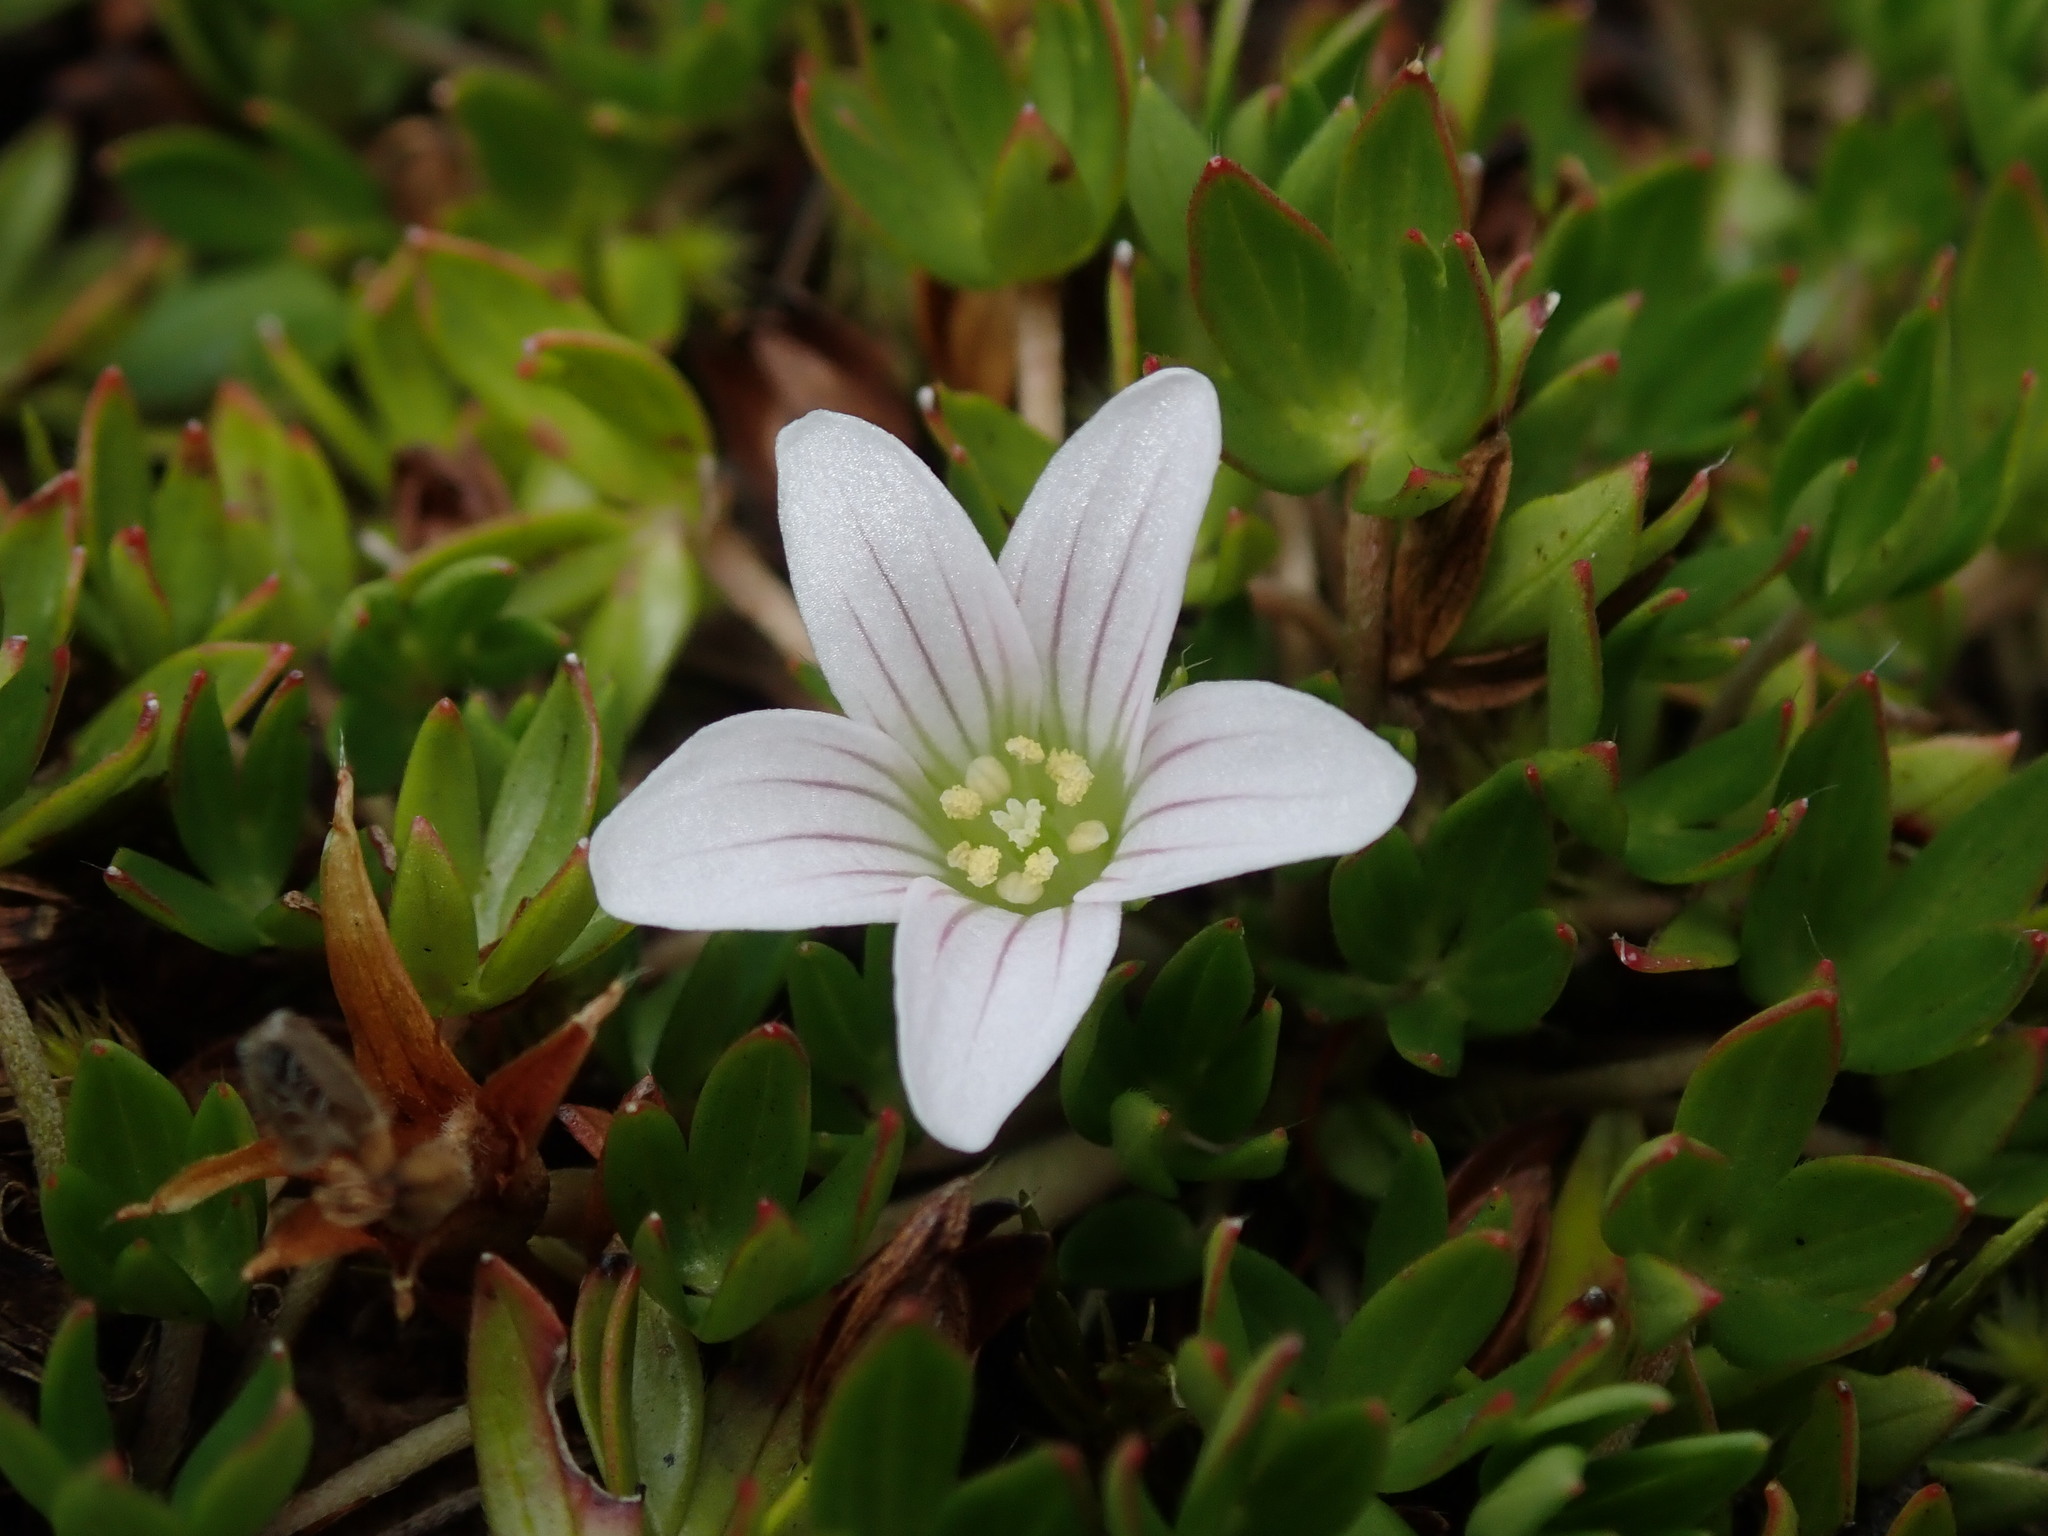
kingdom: Plantae
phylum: Tracheophyta
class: Magnoliopsida
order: Geraniales
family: Geraniaceae
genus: Geranium
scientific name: Geranium sibbaldioides
